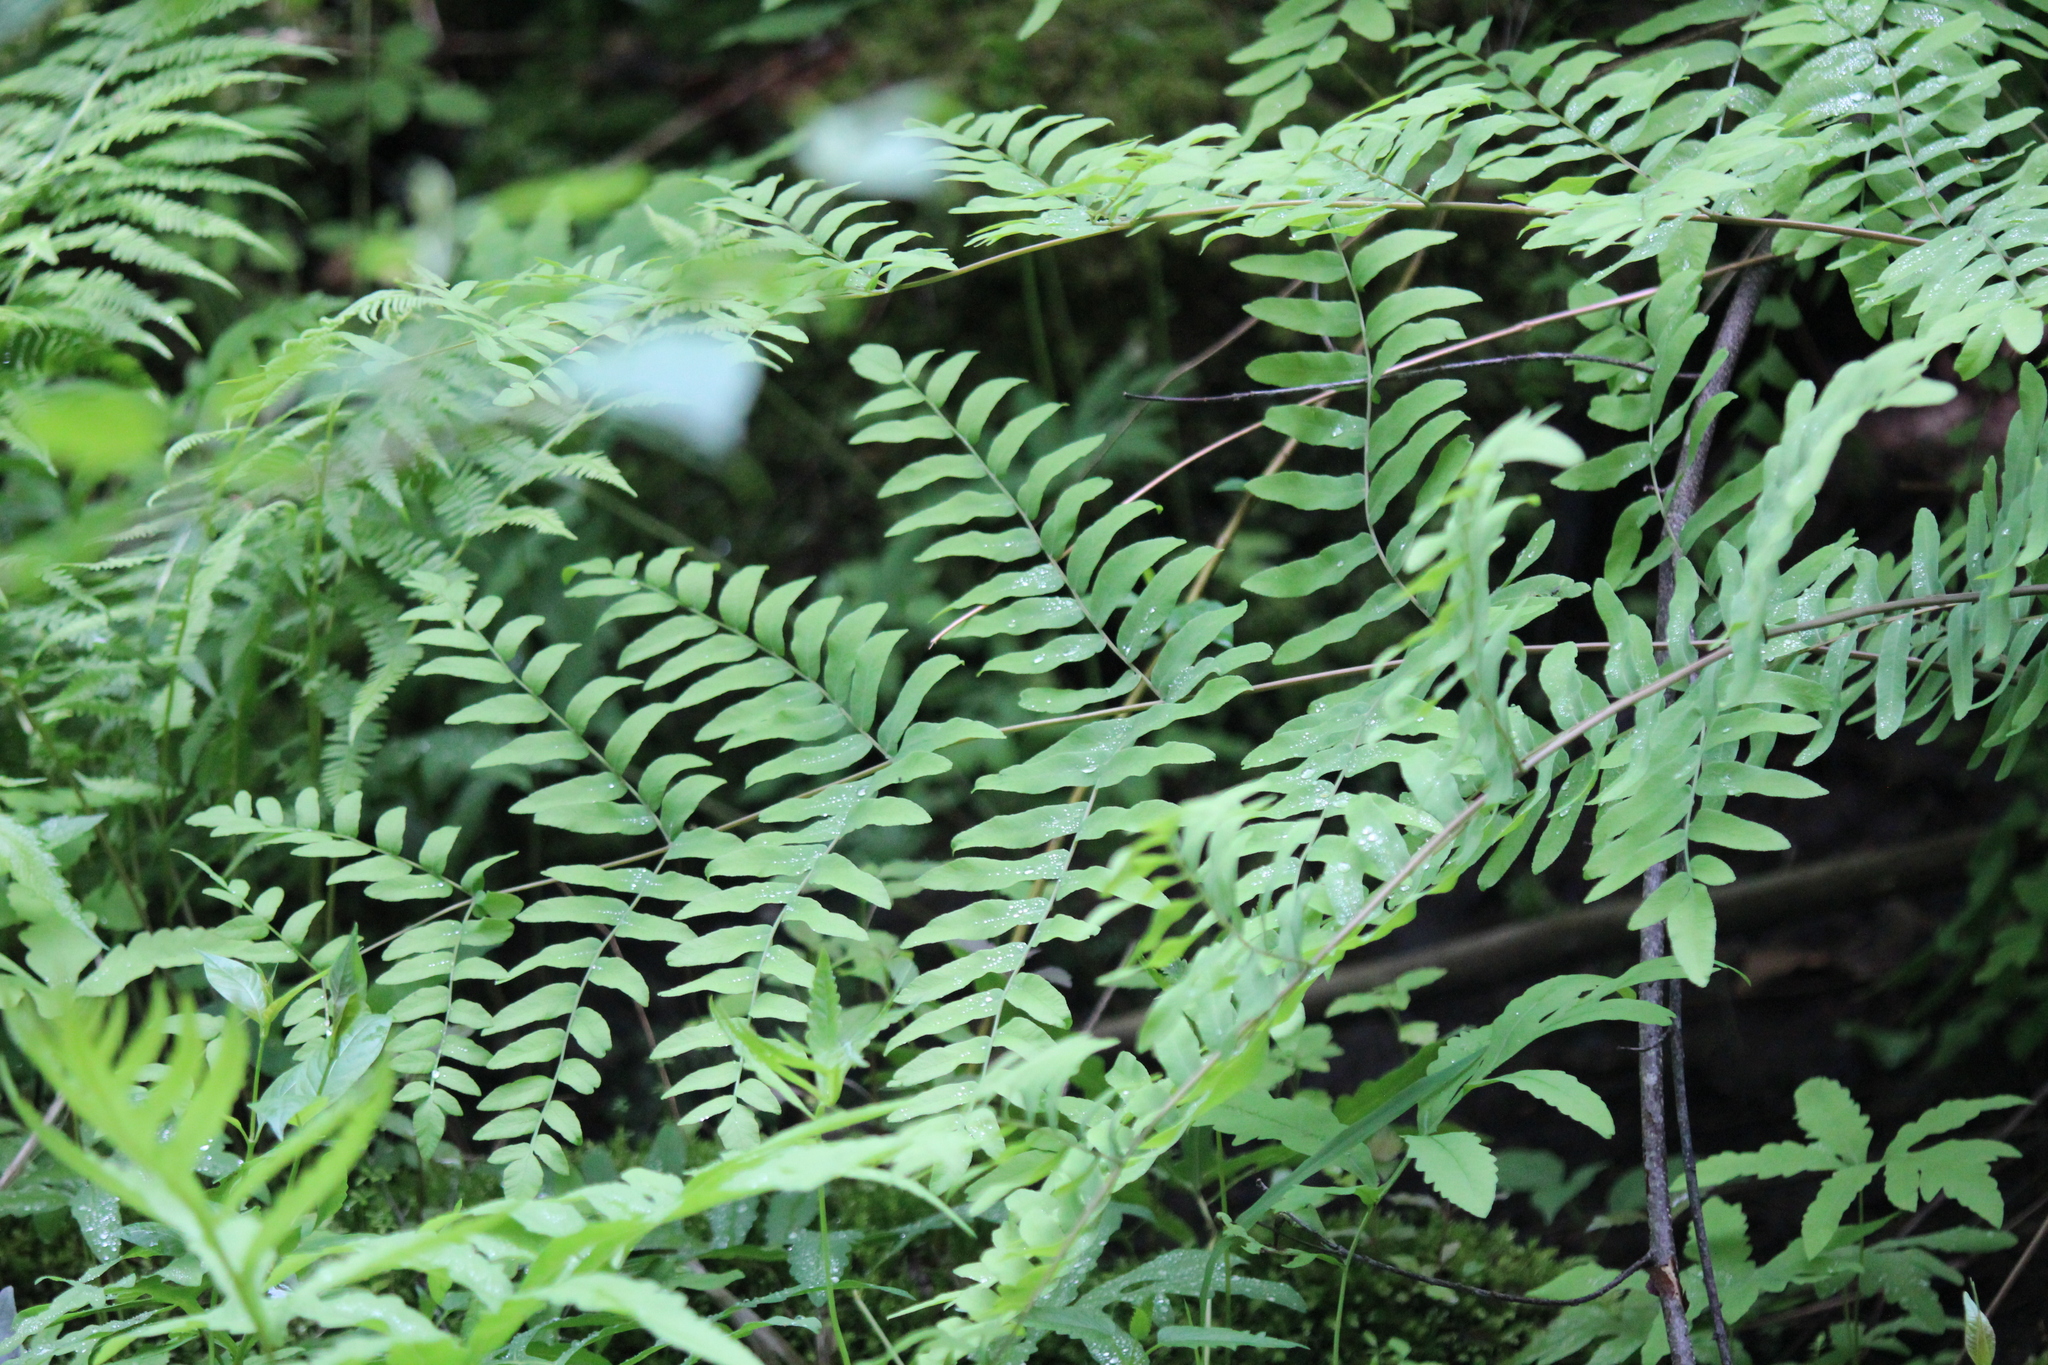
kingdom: Plantae
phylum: Tracheophyta
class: Polypodiopsida
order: Osmundales
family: Osmundaceae
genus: Osmunda
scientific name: Osmunda spectabilis
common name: American royal fern
